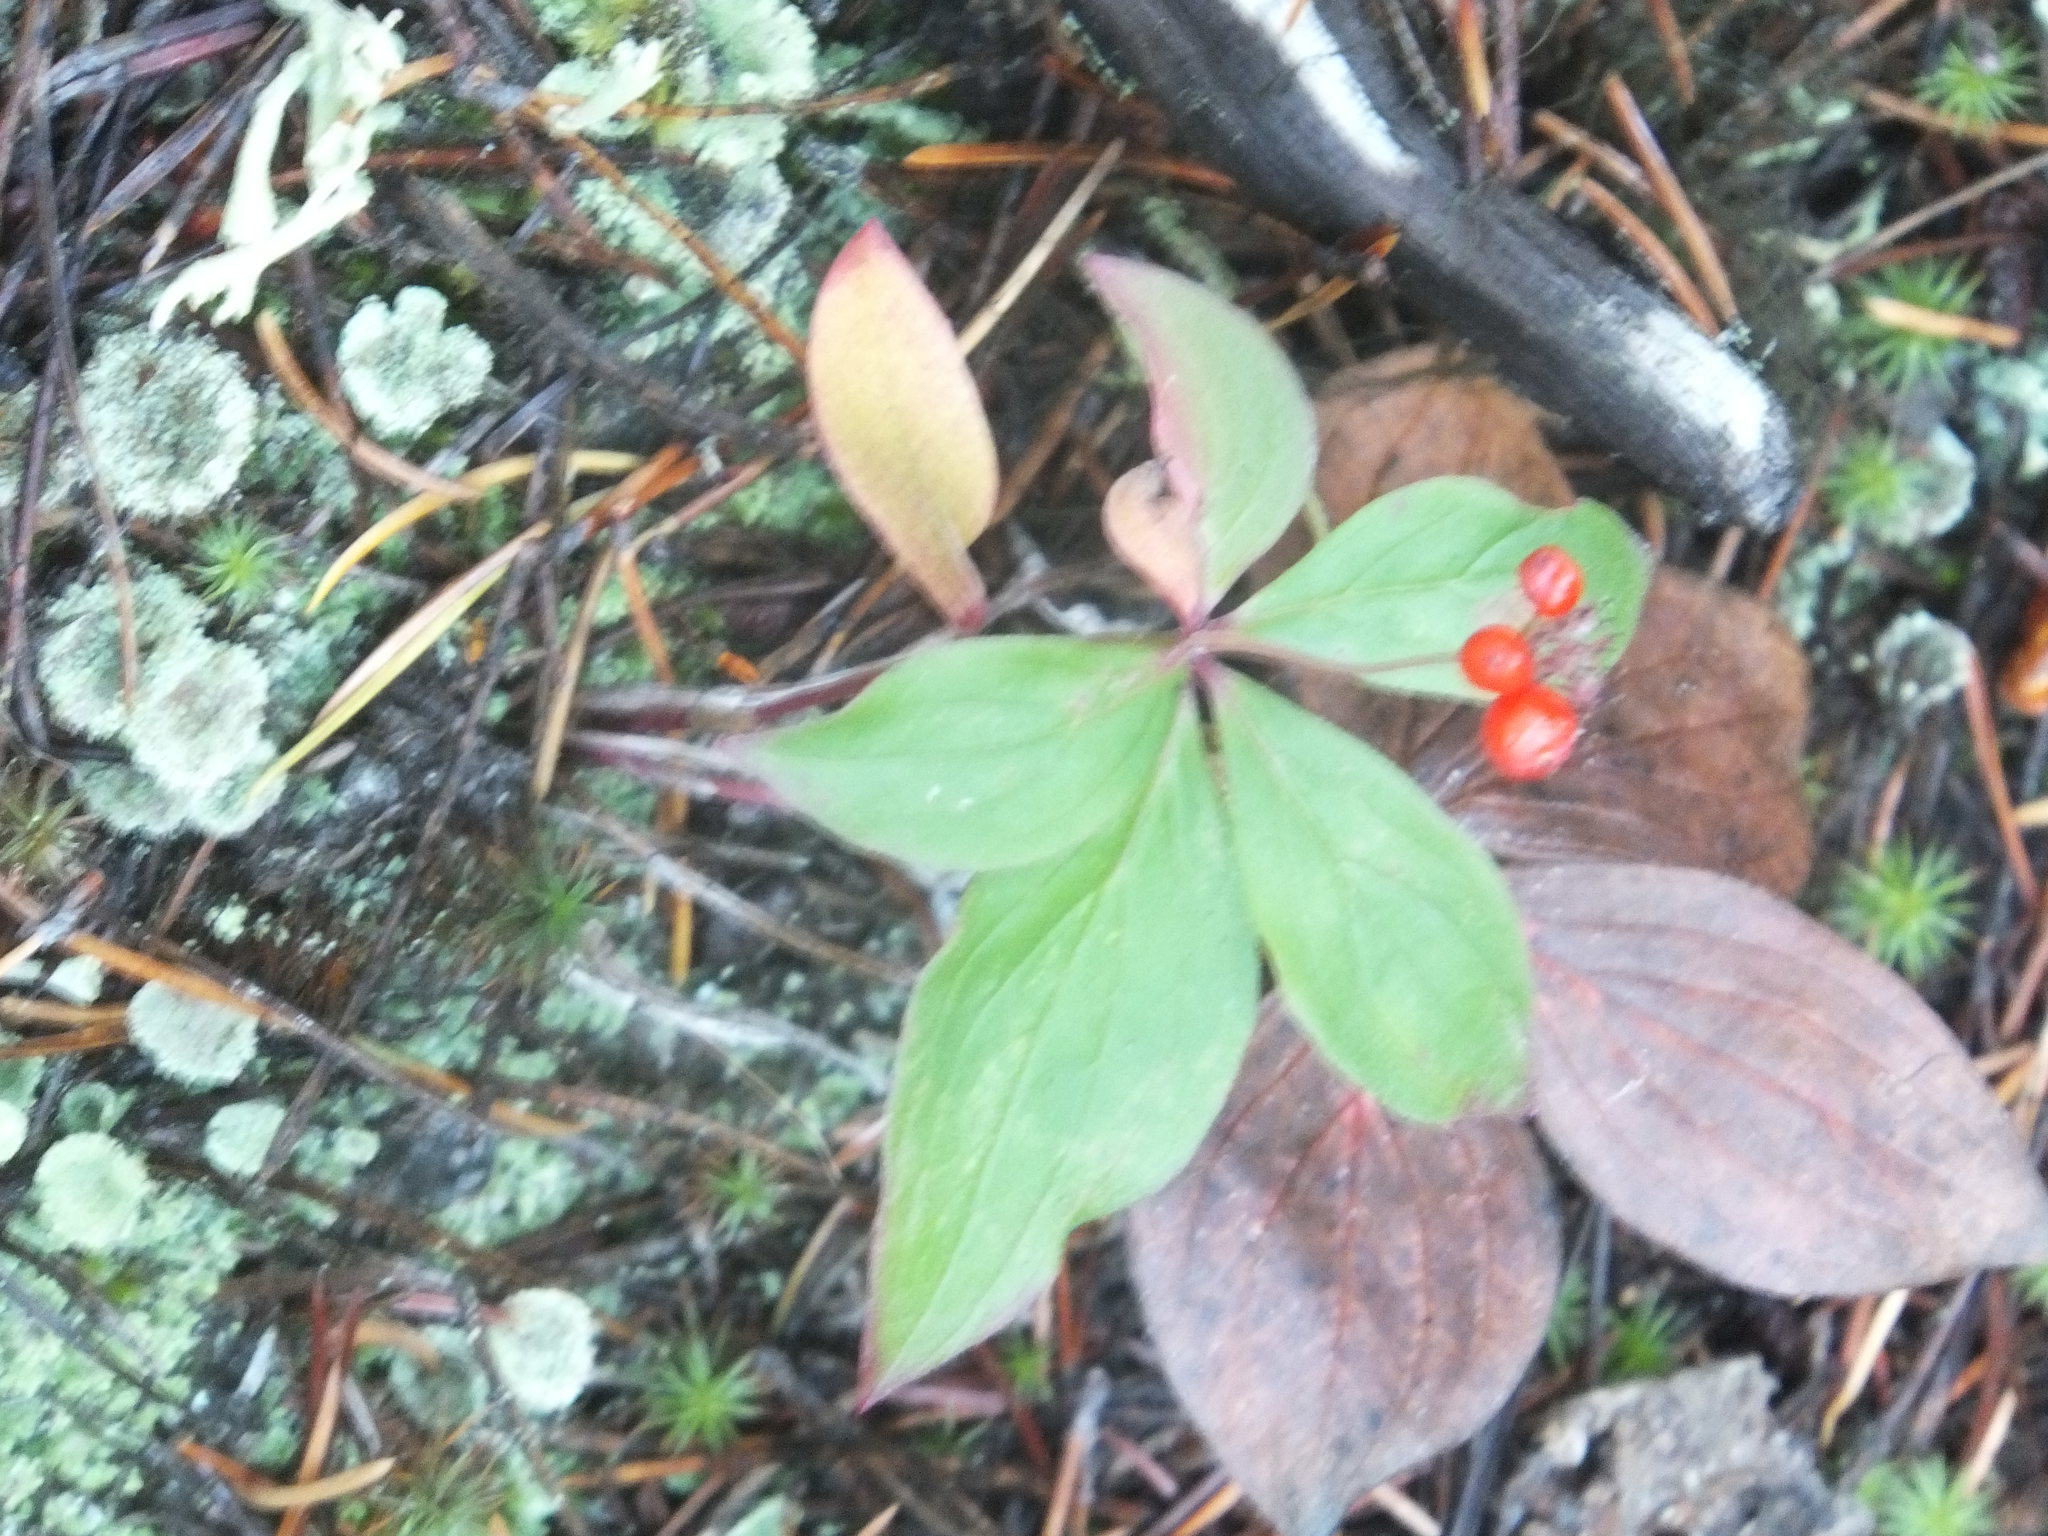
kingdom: Plantae
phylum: Tracheophyta
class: Magnoliopsida
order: Cornales
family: Cornaceae
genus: Cornus
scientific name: Cornus unalaschkensis
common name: Alaska bunchberry
